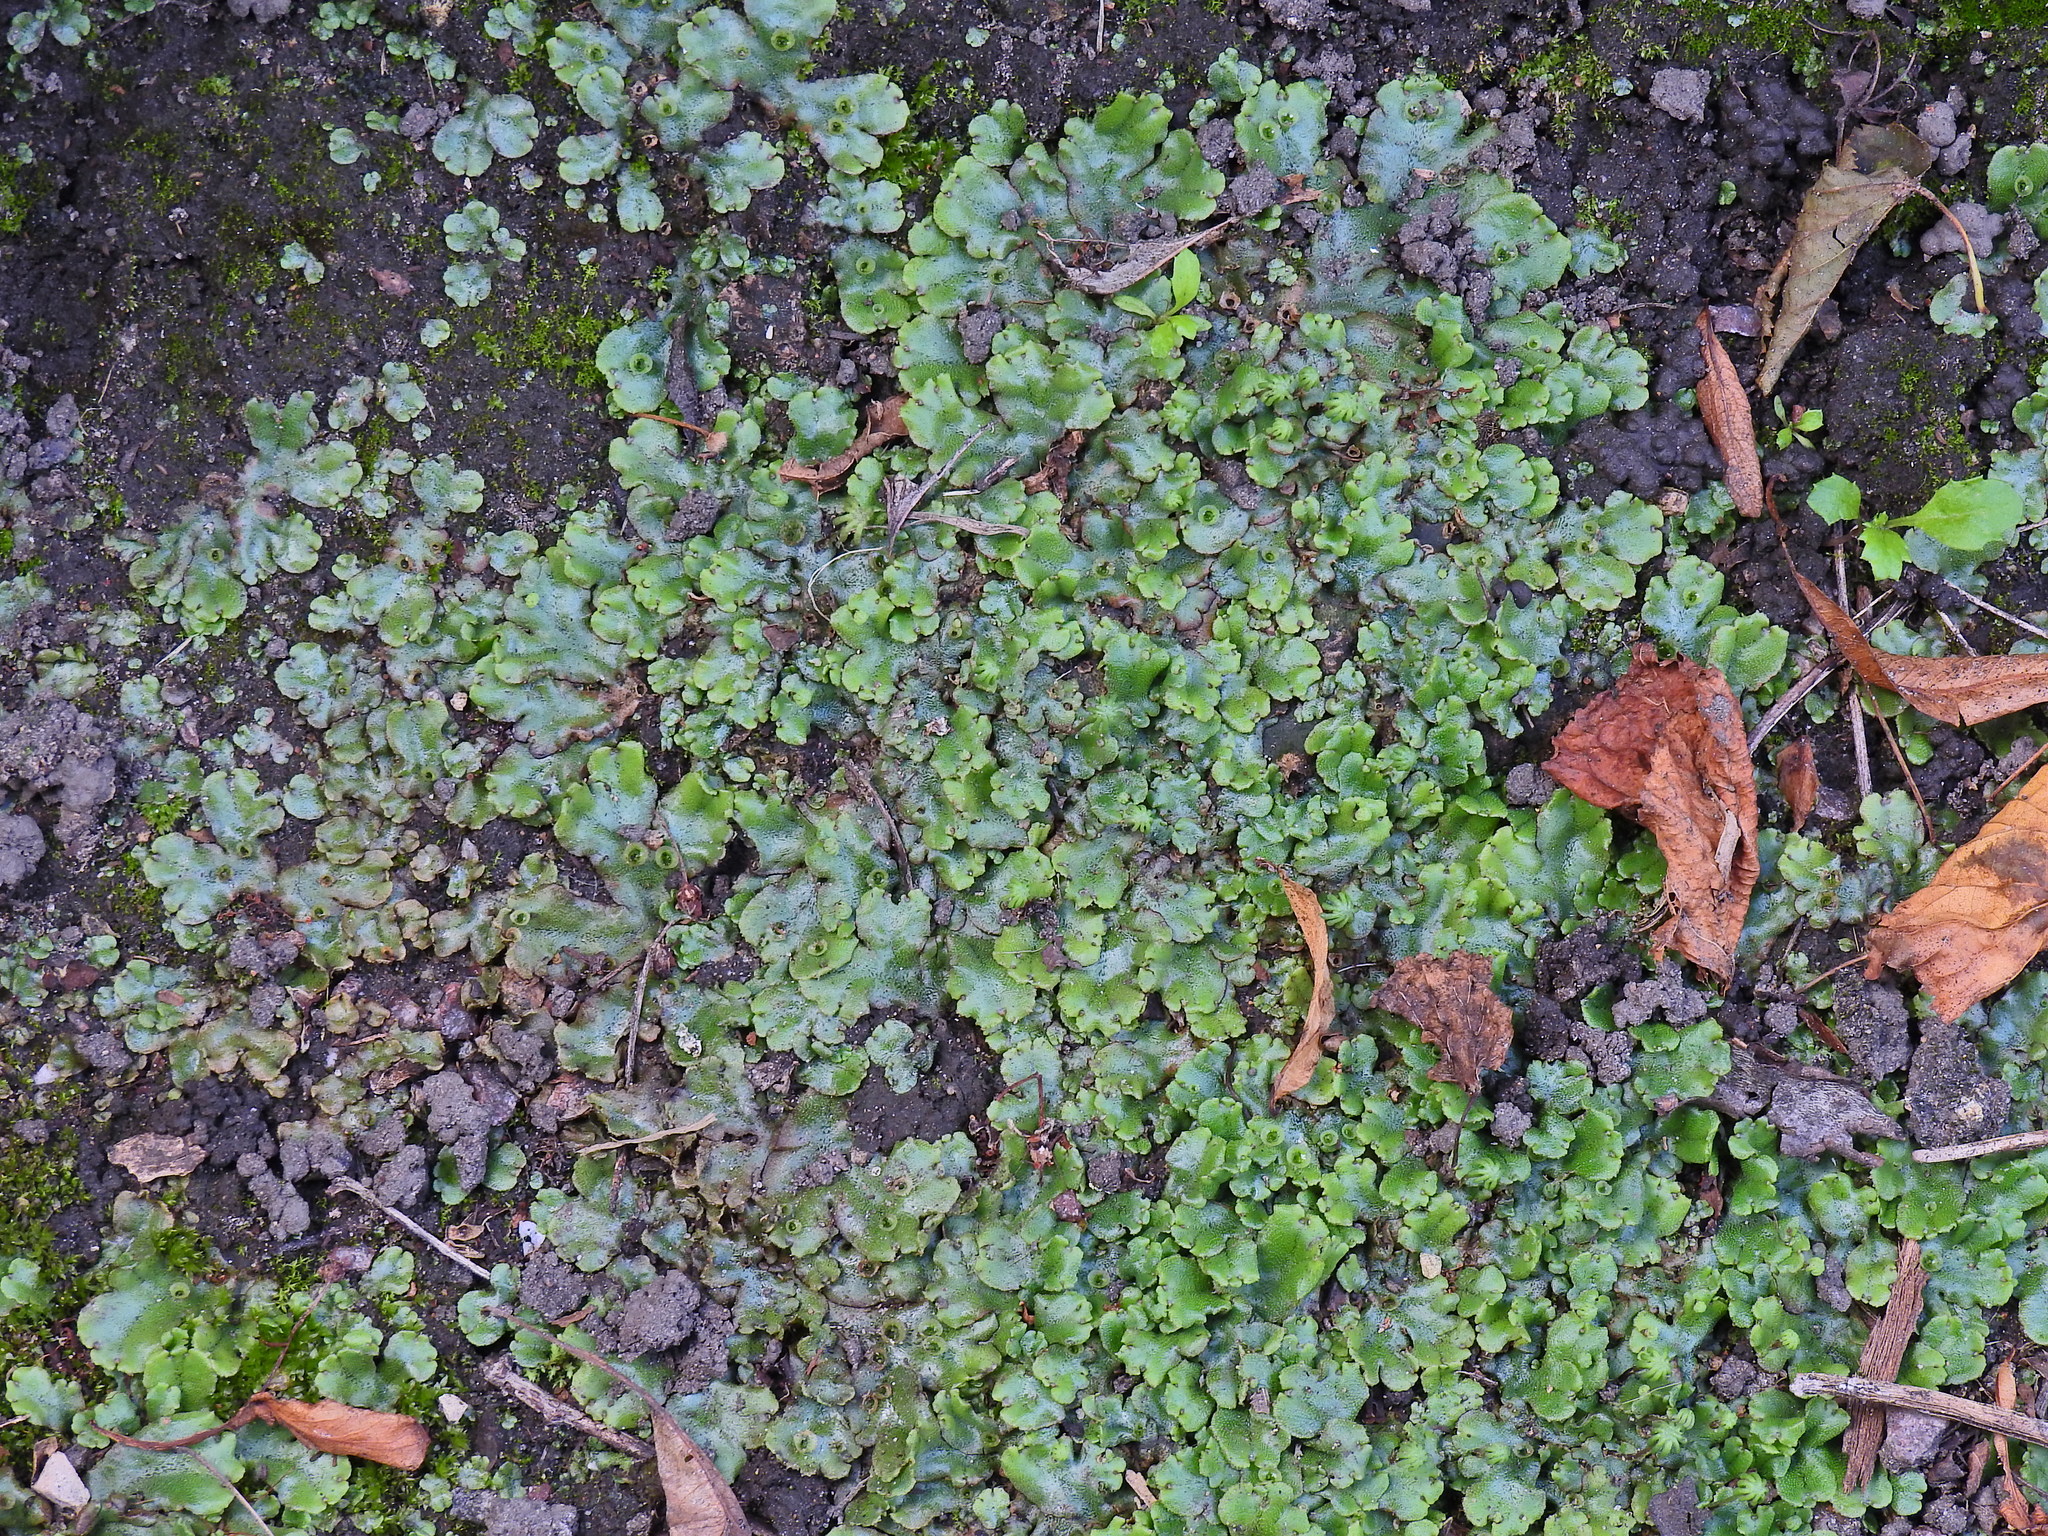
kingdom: Plantae
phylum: Marchantiophyta
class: Marchantiopsida
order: Marchantiales
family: Marchantiaceae
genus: Marchantia
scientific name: Marchantia polymorpha
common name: Common liverwort
